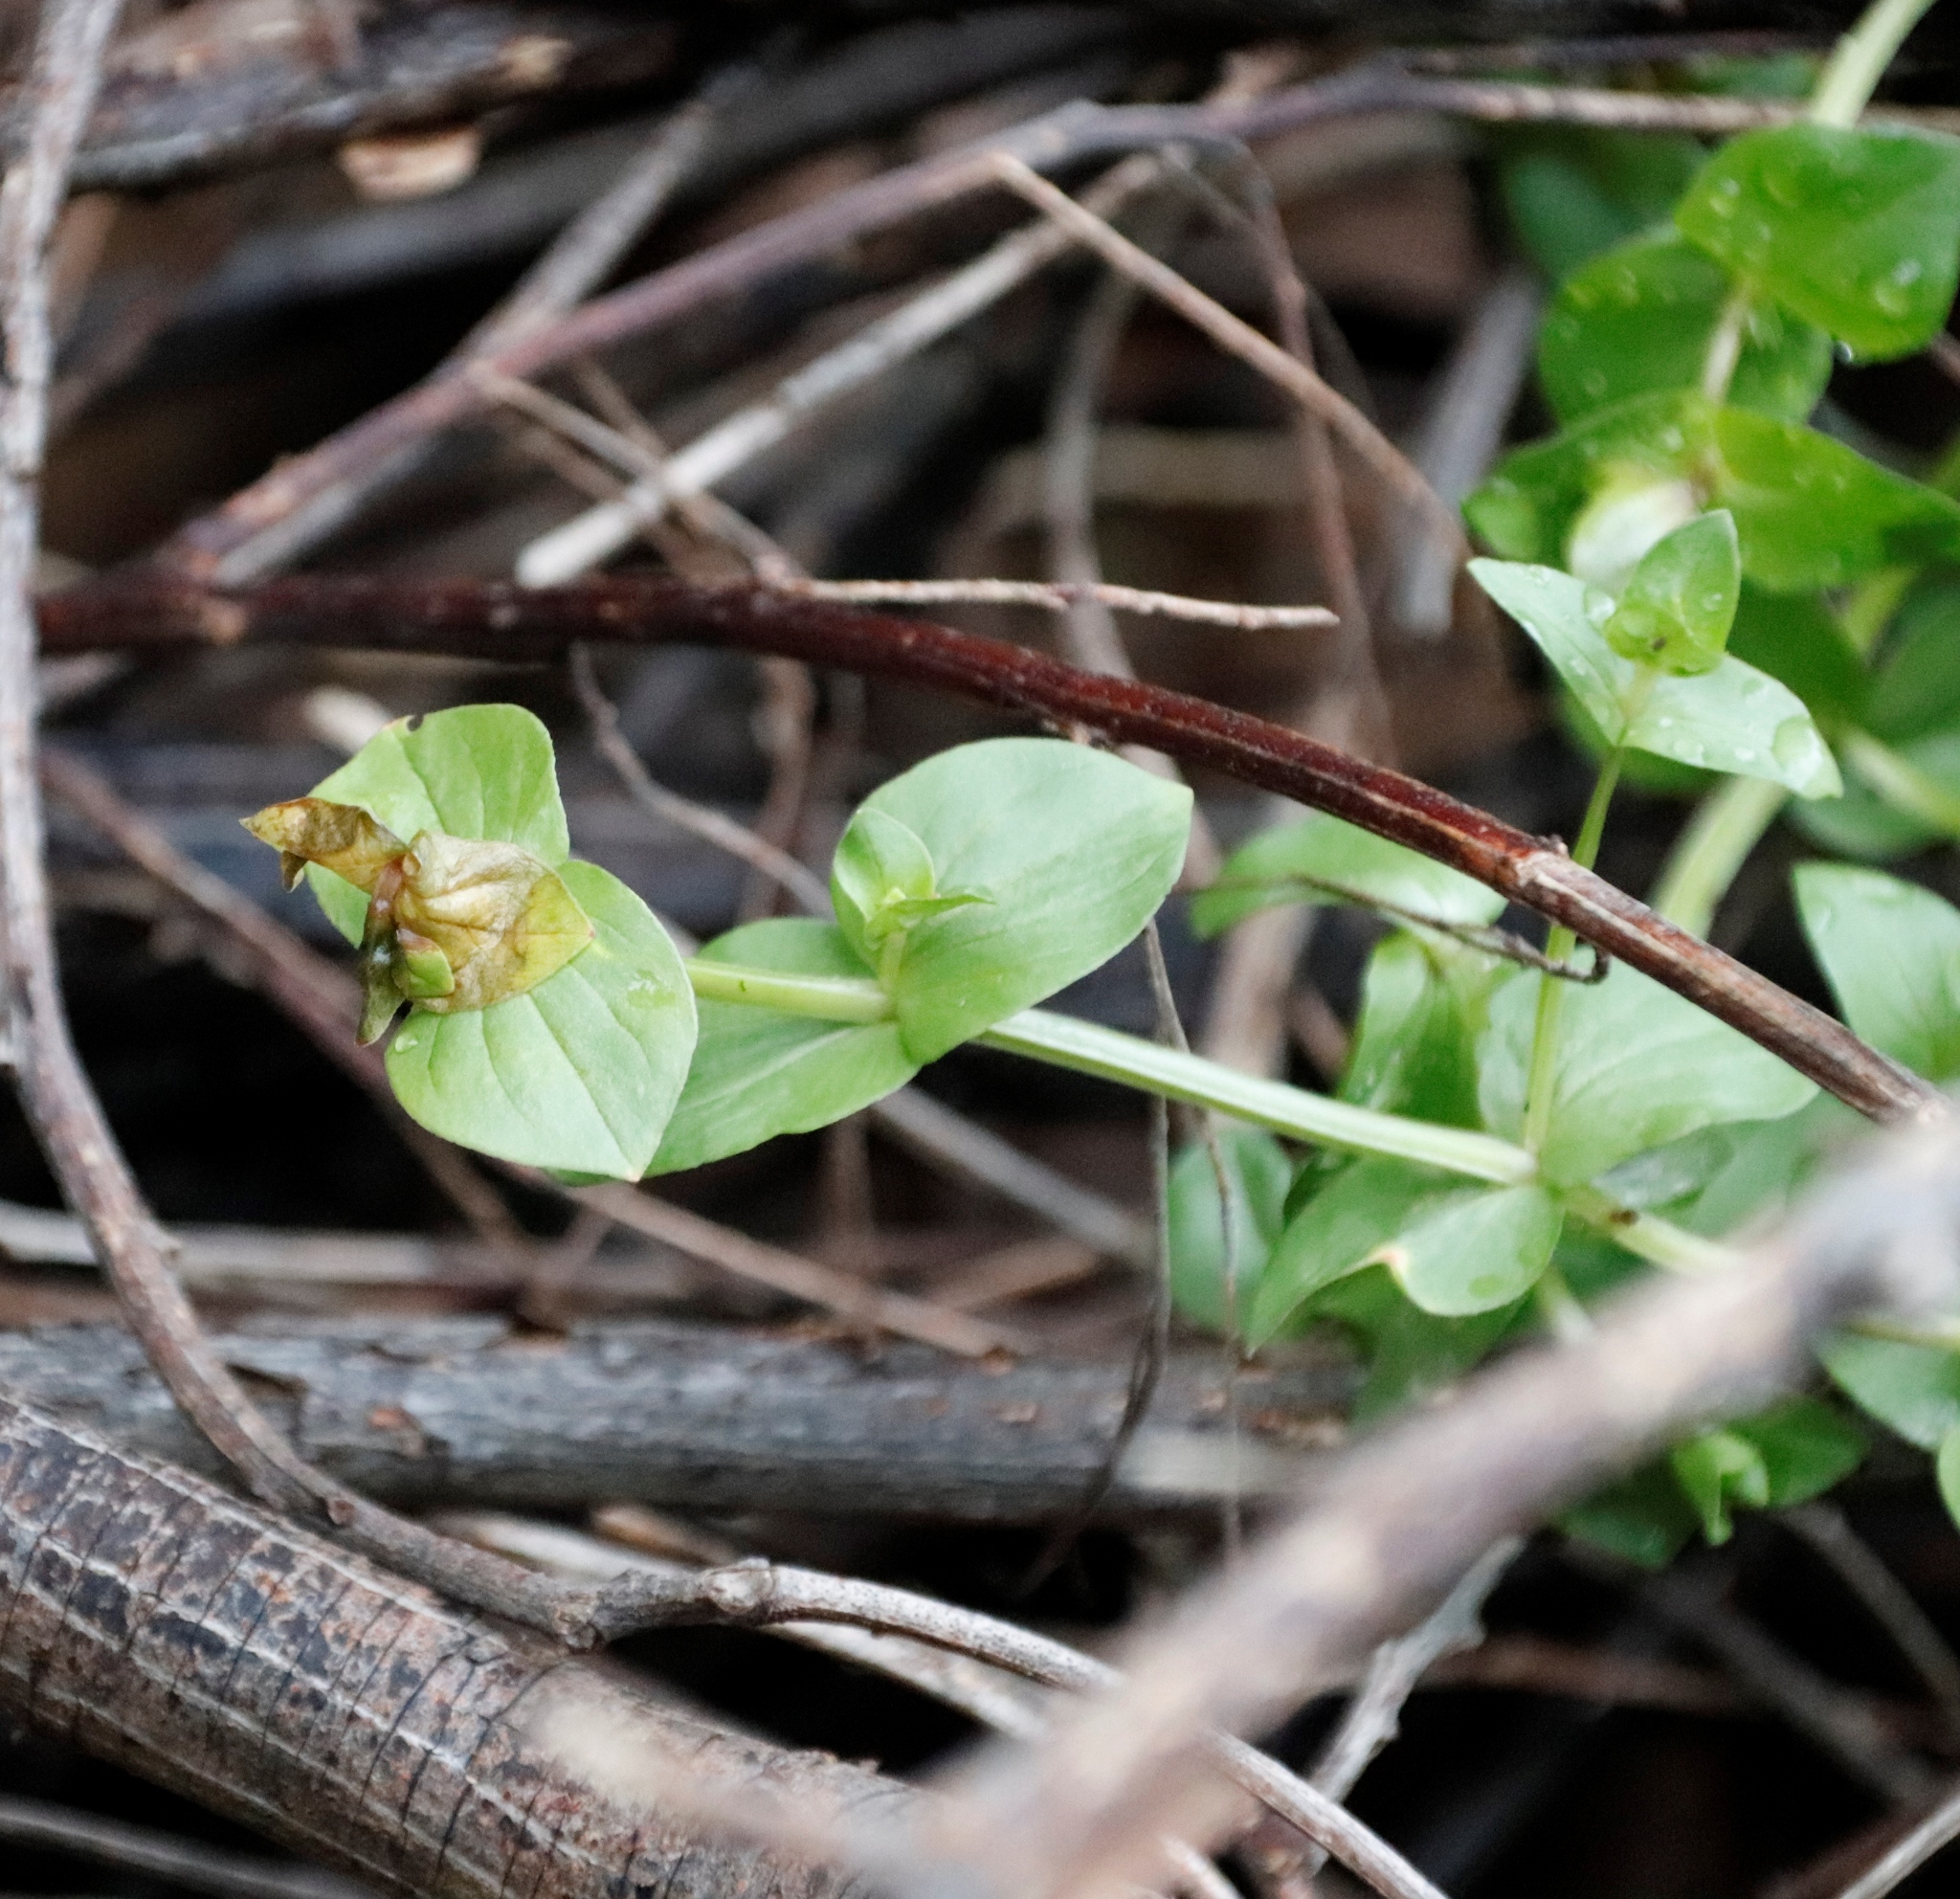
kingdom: Plantae
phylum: Tracheophyta
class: Magnoliopsida
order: Ericales
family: Primulaceae
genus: Lysimachia
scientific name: Lysimachia arvensis
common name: Scarlet pimpernel
